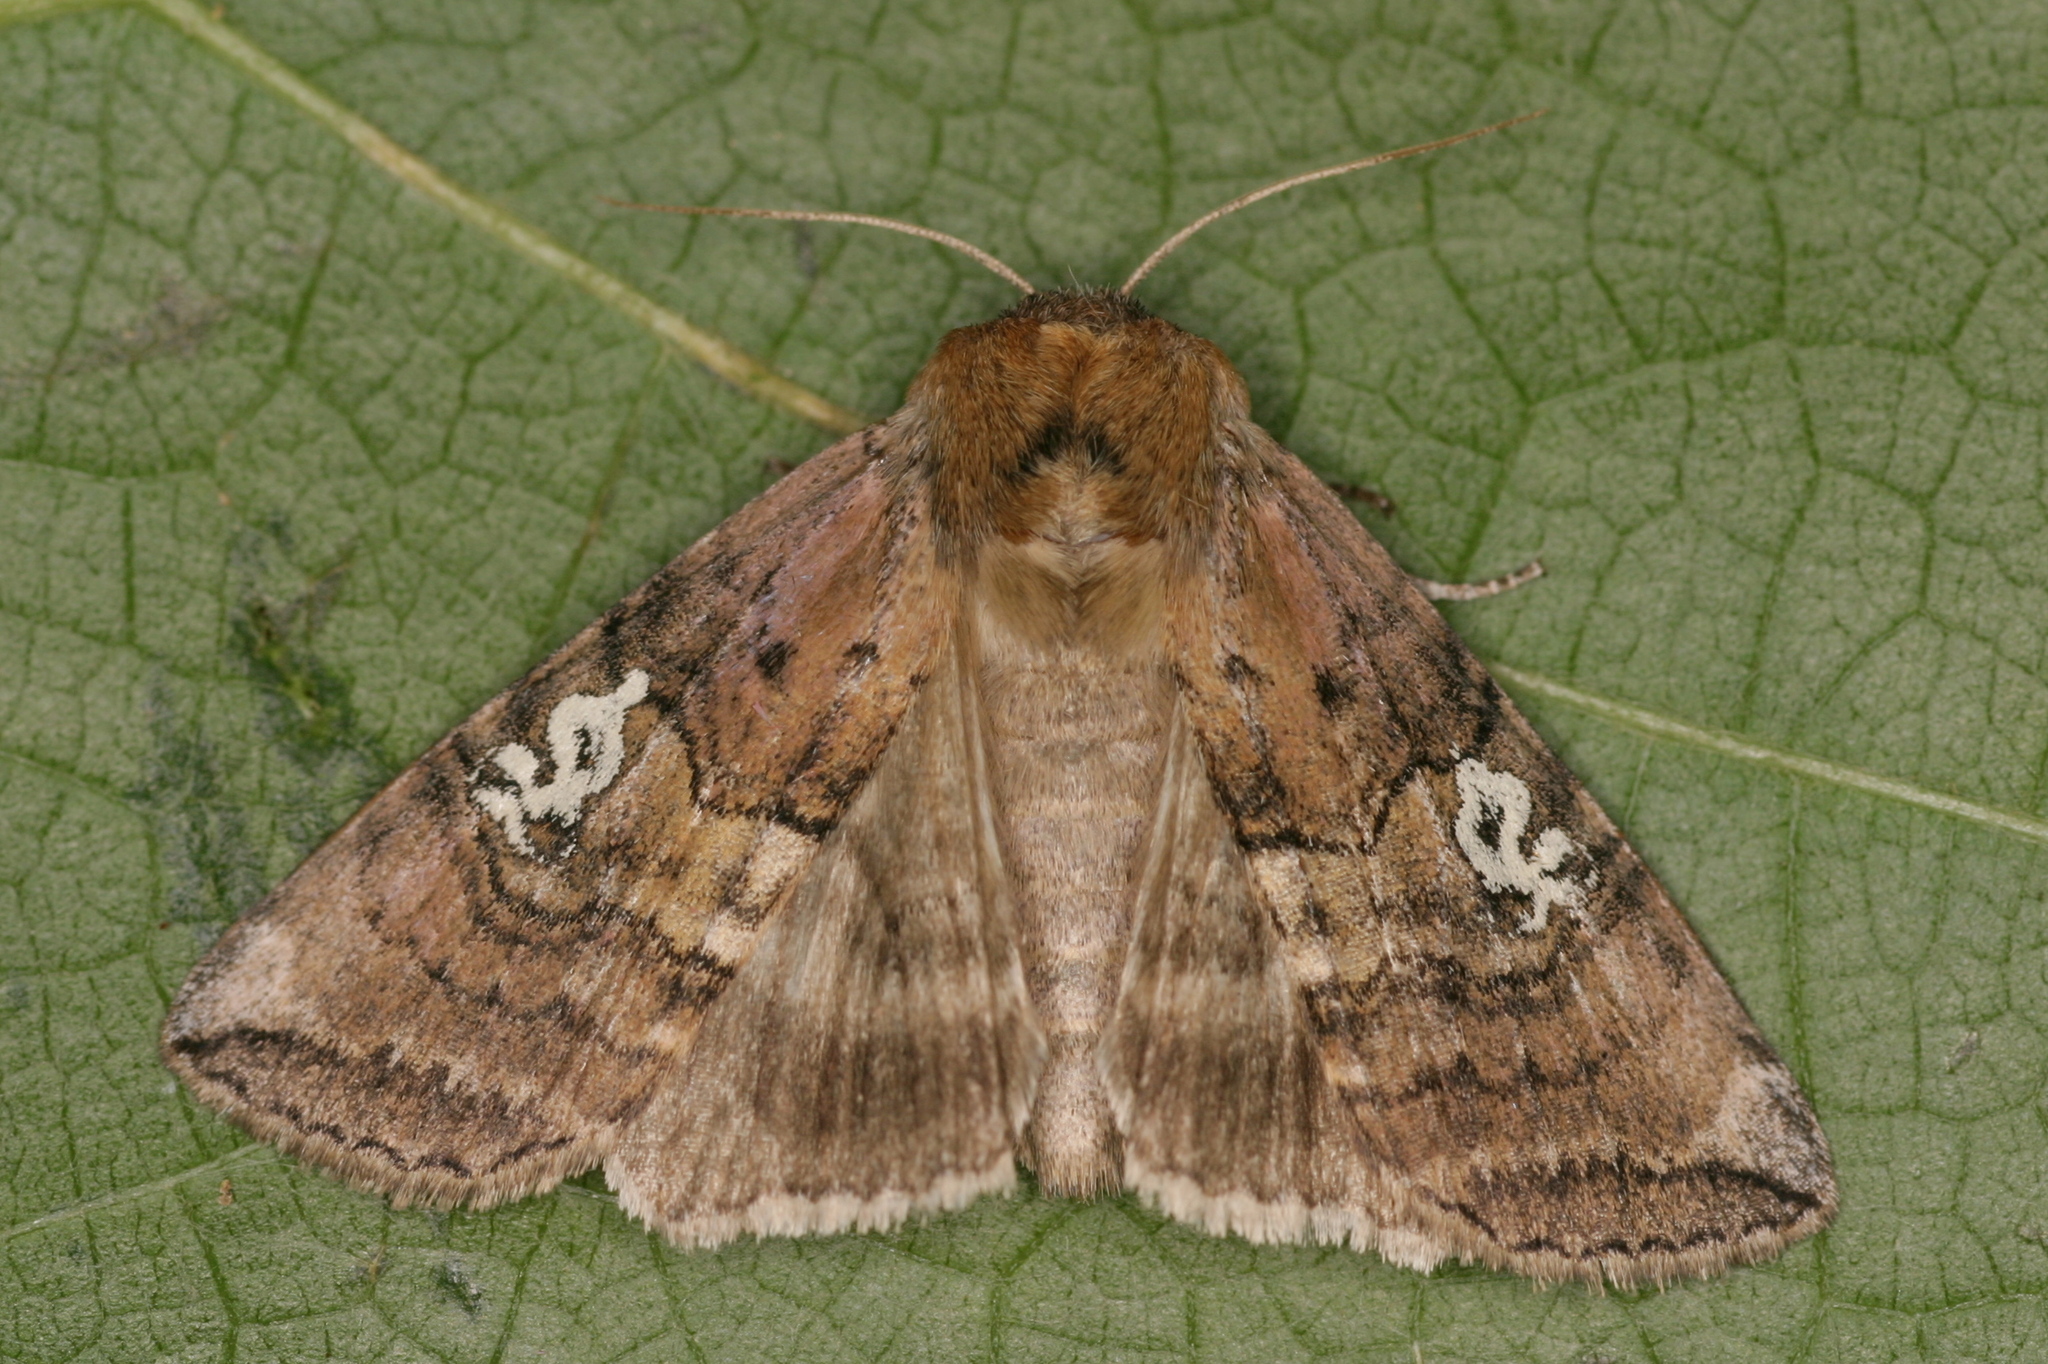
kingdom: Animalia
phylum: Arthropoda
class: Insecta
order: Lepidoptera
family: Drepanidae
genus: Tethea
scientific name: Tethea ocularis
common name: Figure of eighty
